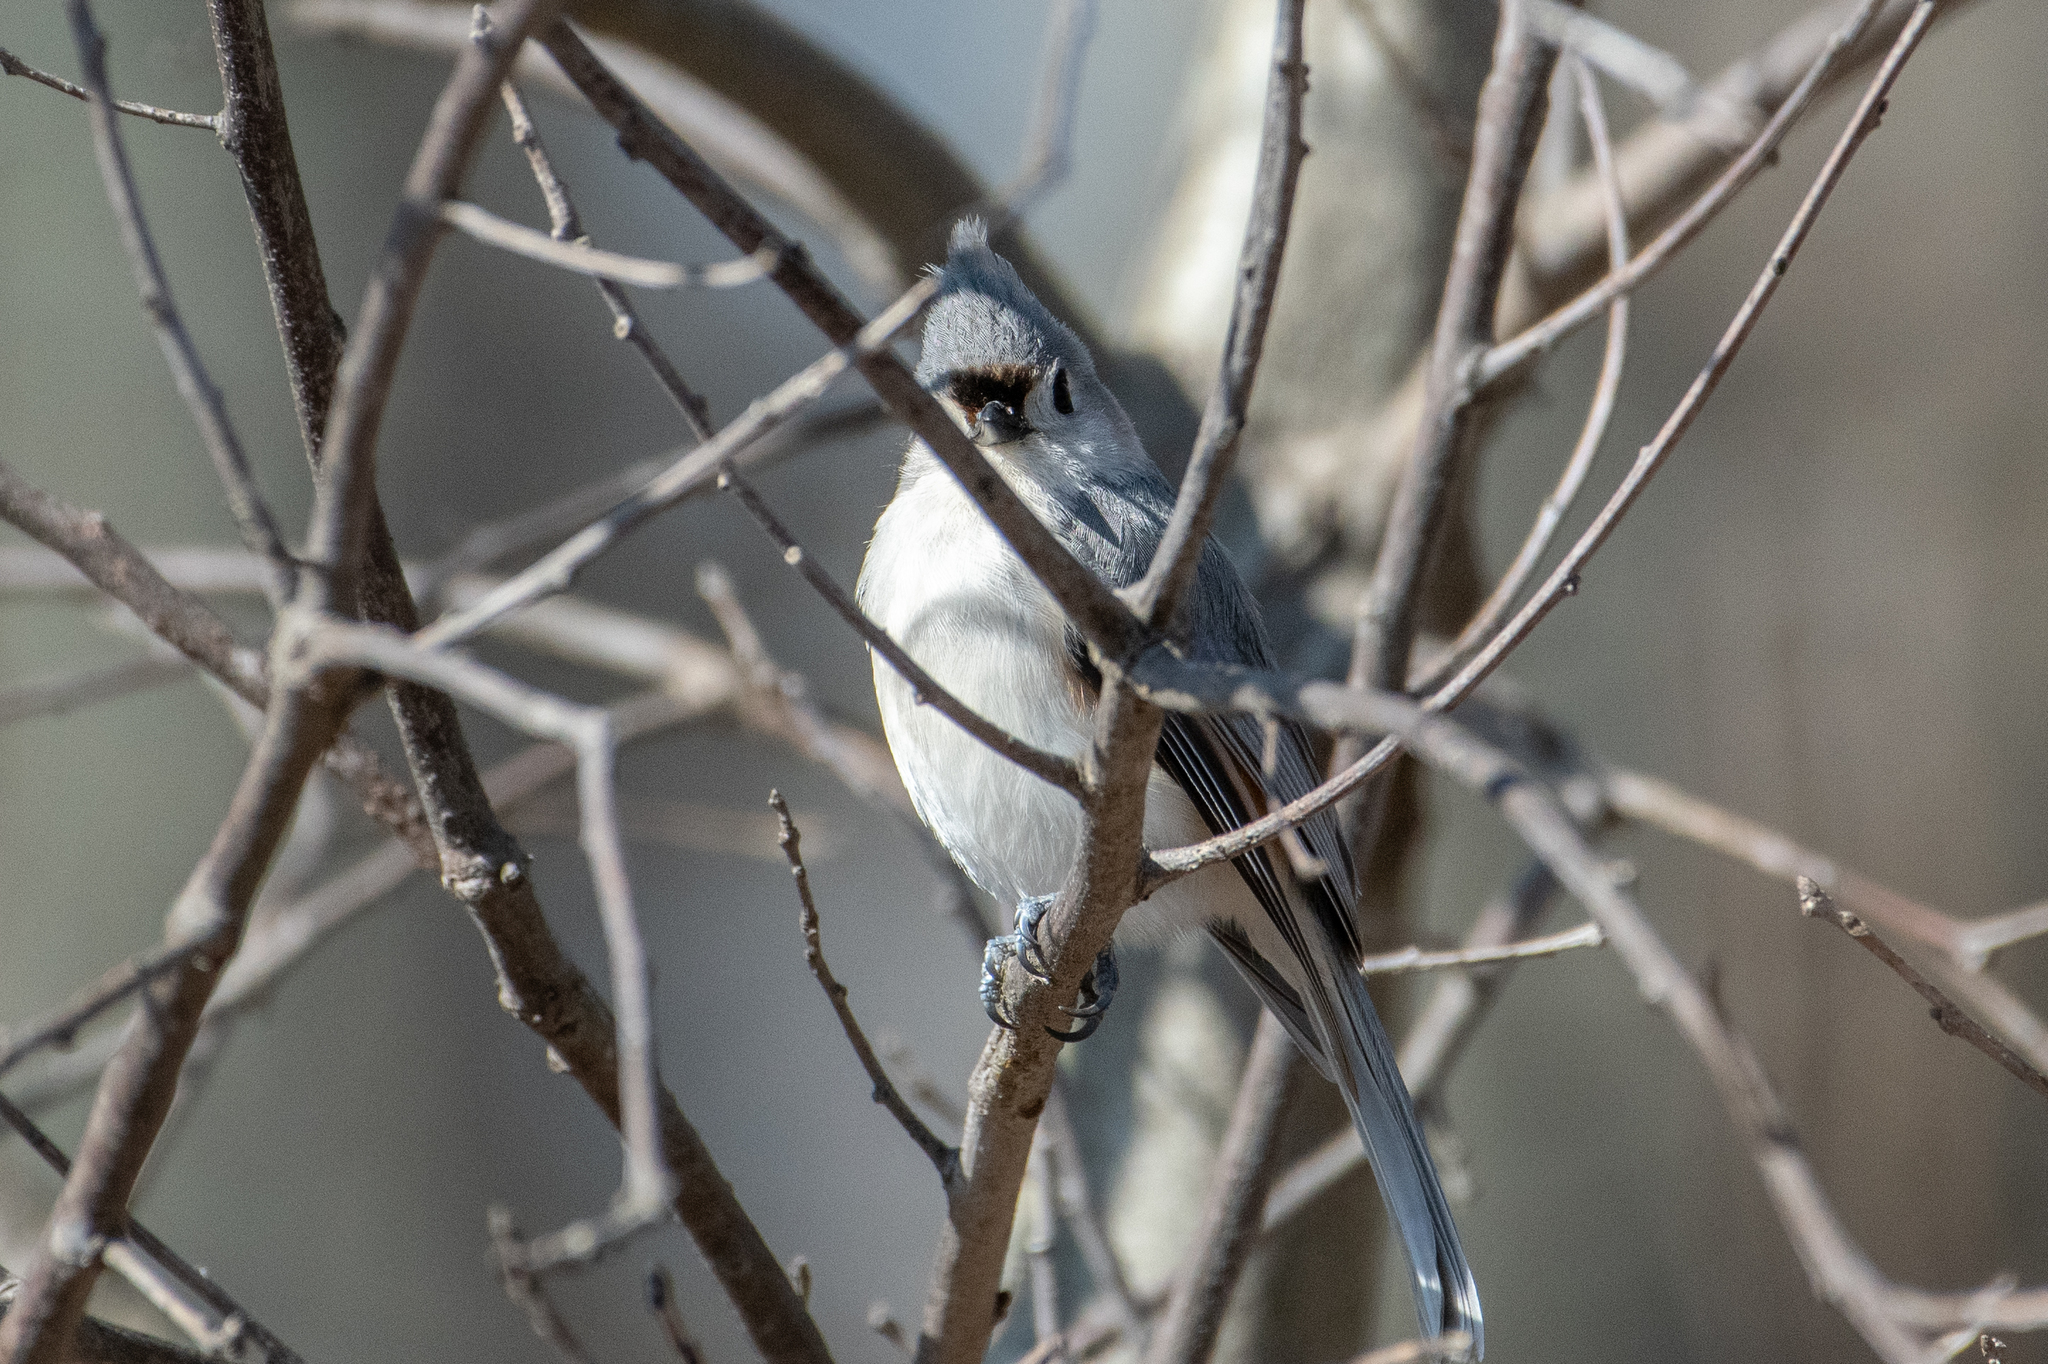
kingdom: Animalia
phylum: Chordata
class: Aves
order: Passeriformes
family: Paridae
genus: Baeolophus
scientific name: Baeolophus bicolor
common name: Tufted titmouse
